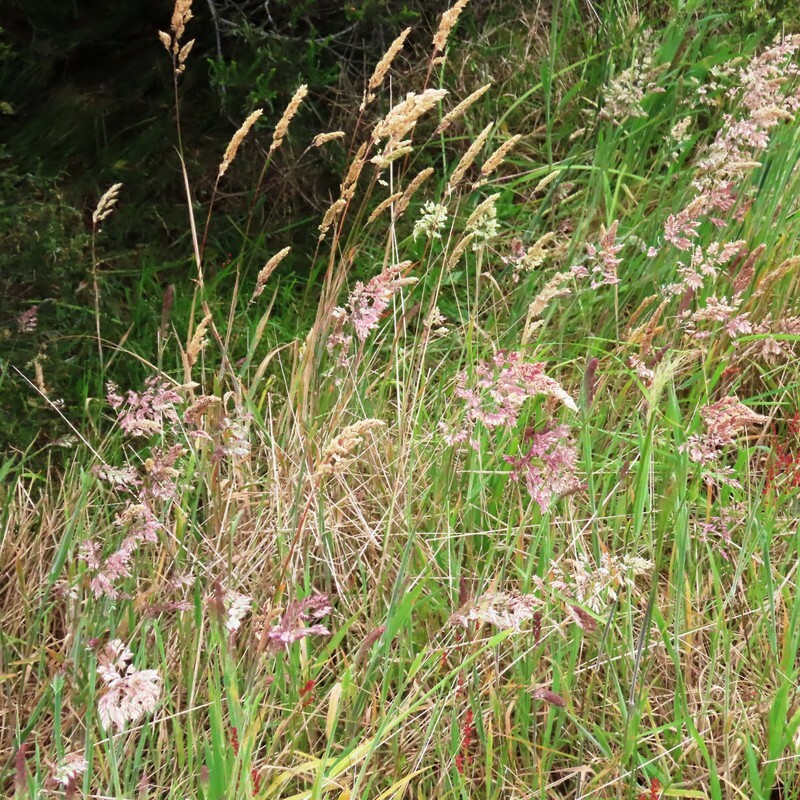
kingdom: Plantae
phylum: Tracheophyta
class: Liliopsida
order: Poales
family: Poaceae
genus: Holcus
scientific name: Holcus lanatus
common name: Yorkshire-fog
